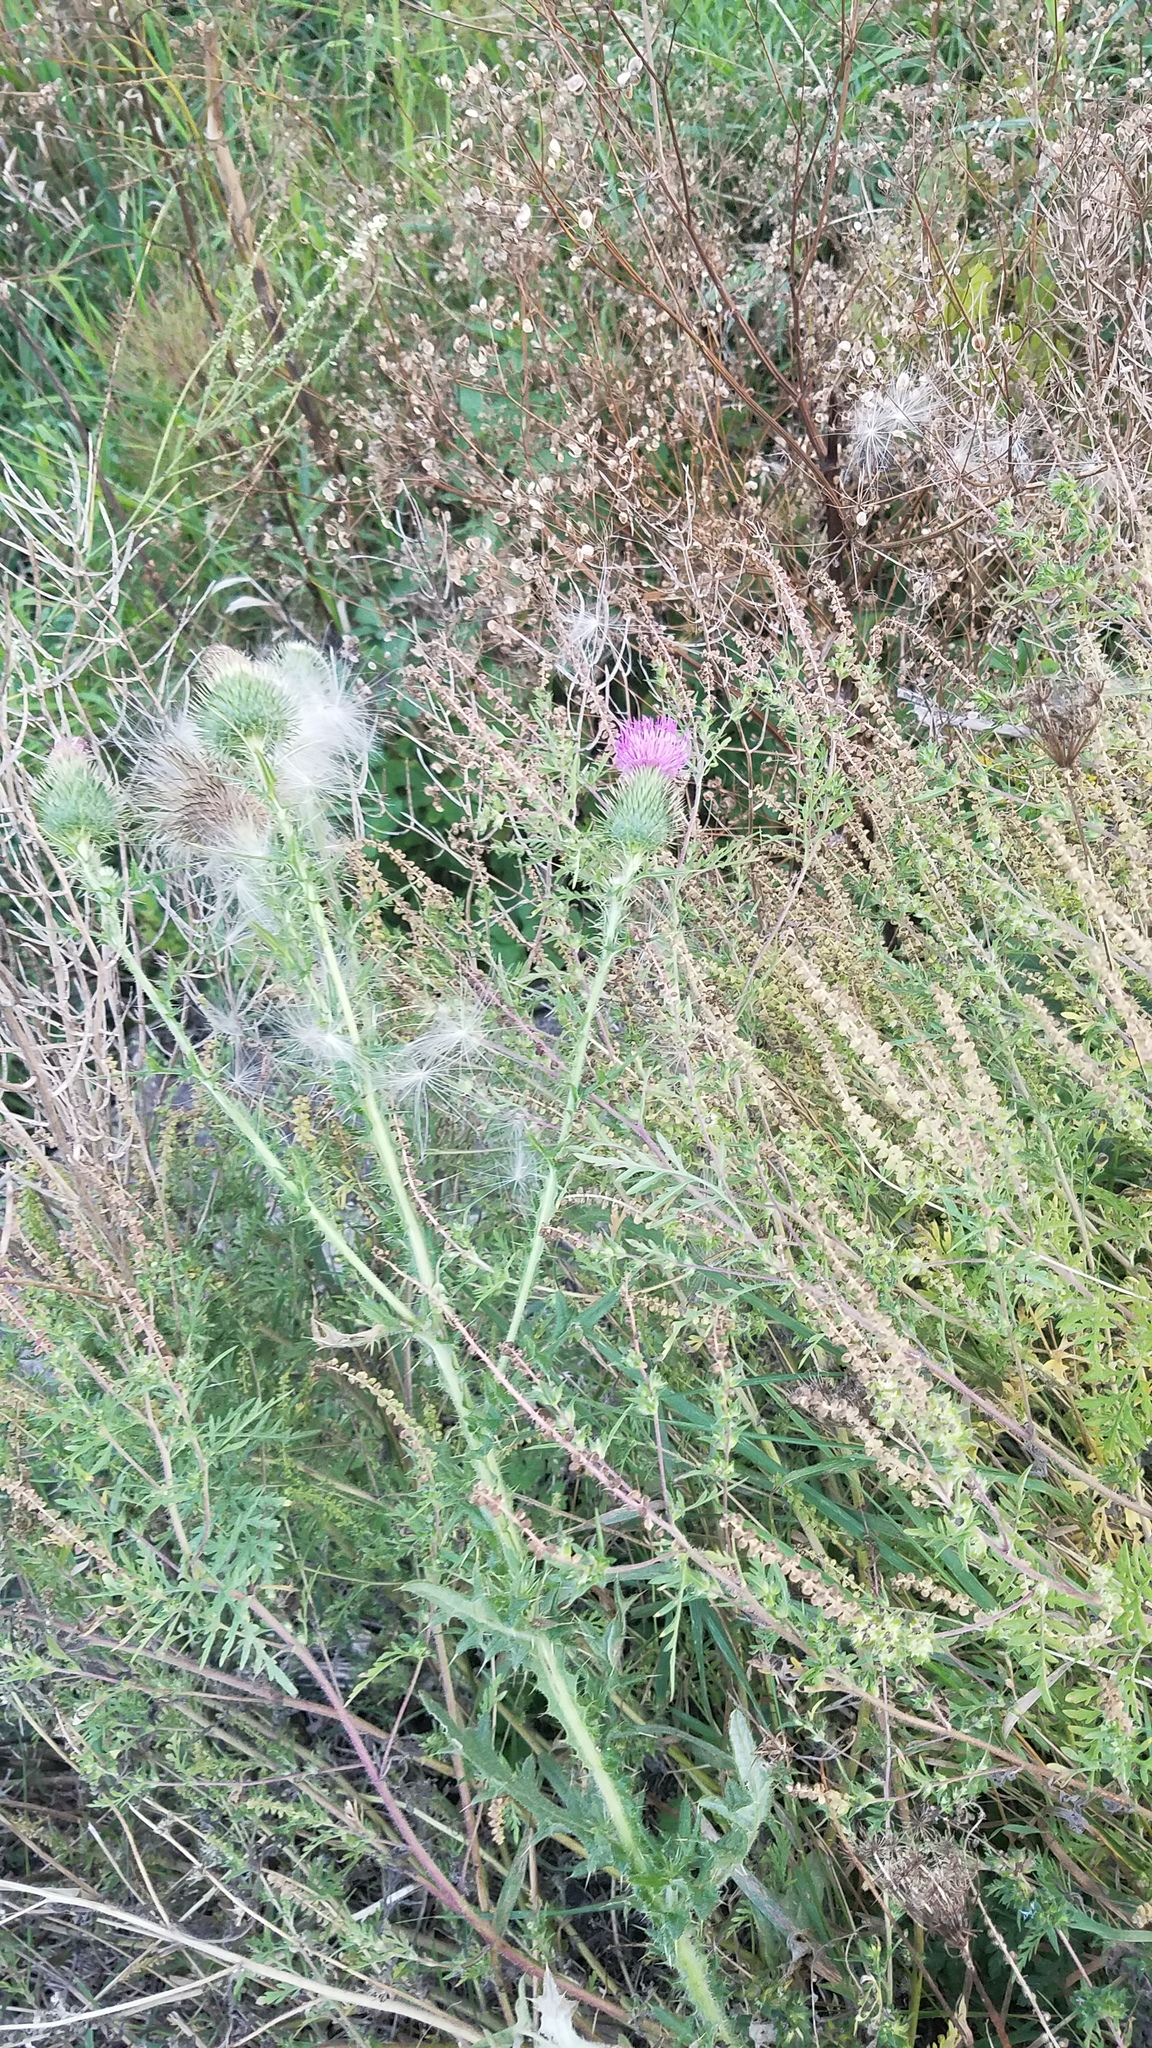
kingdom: Plantae
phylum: Tracheophyta
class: Magnoliopsida
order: Asterales
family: Asteraceae
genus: Cirsium
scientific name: Cirsium vulgare
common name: Bull thistle
